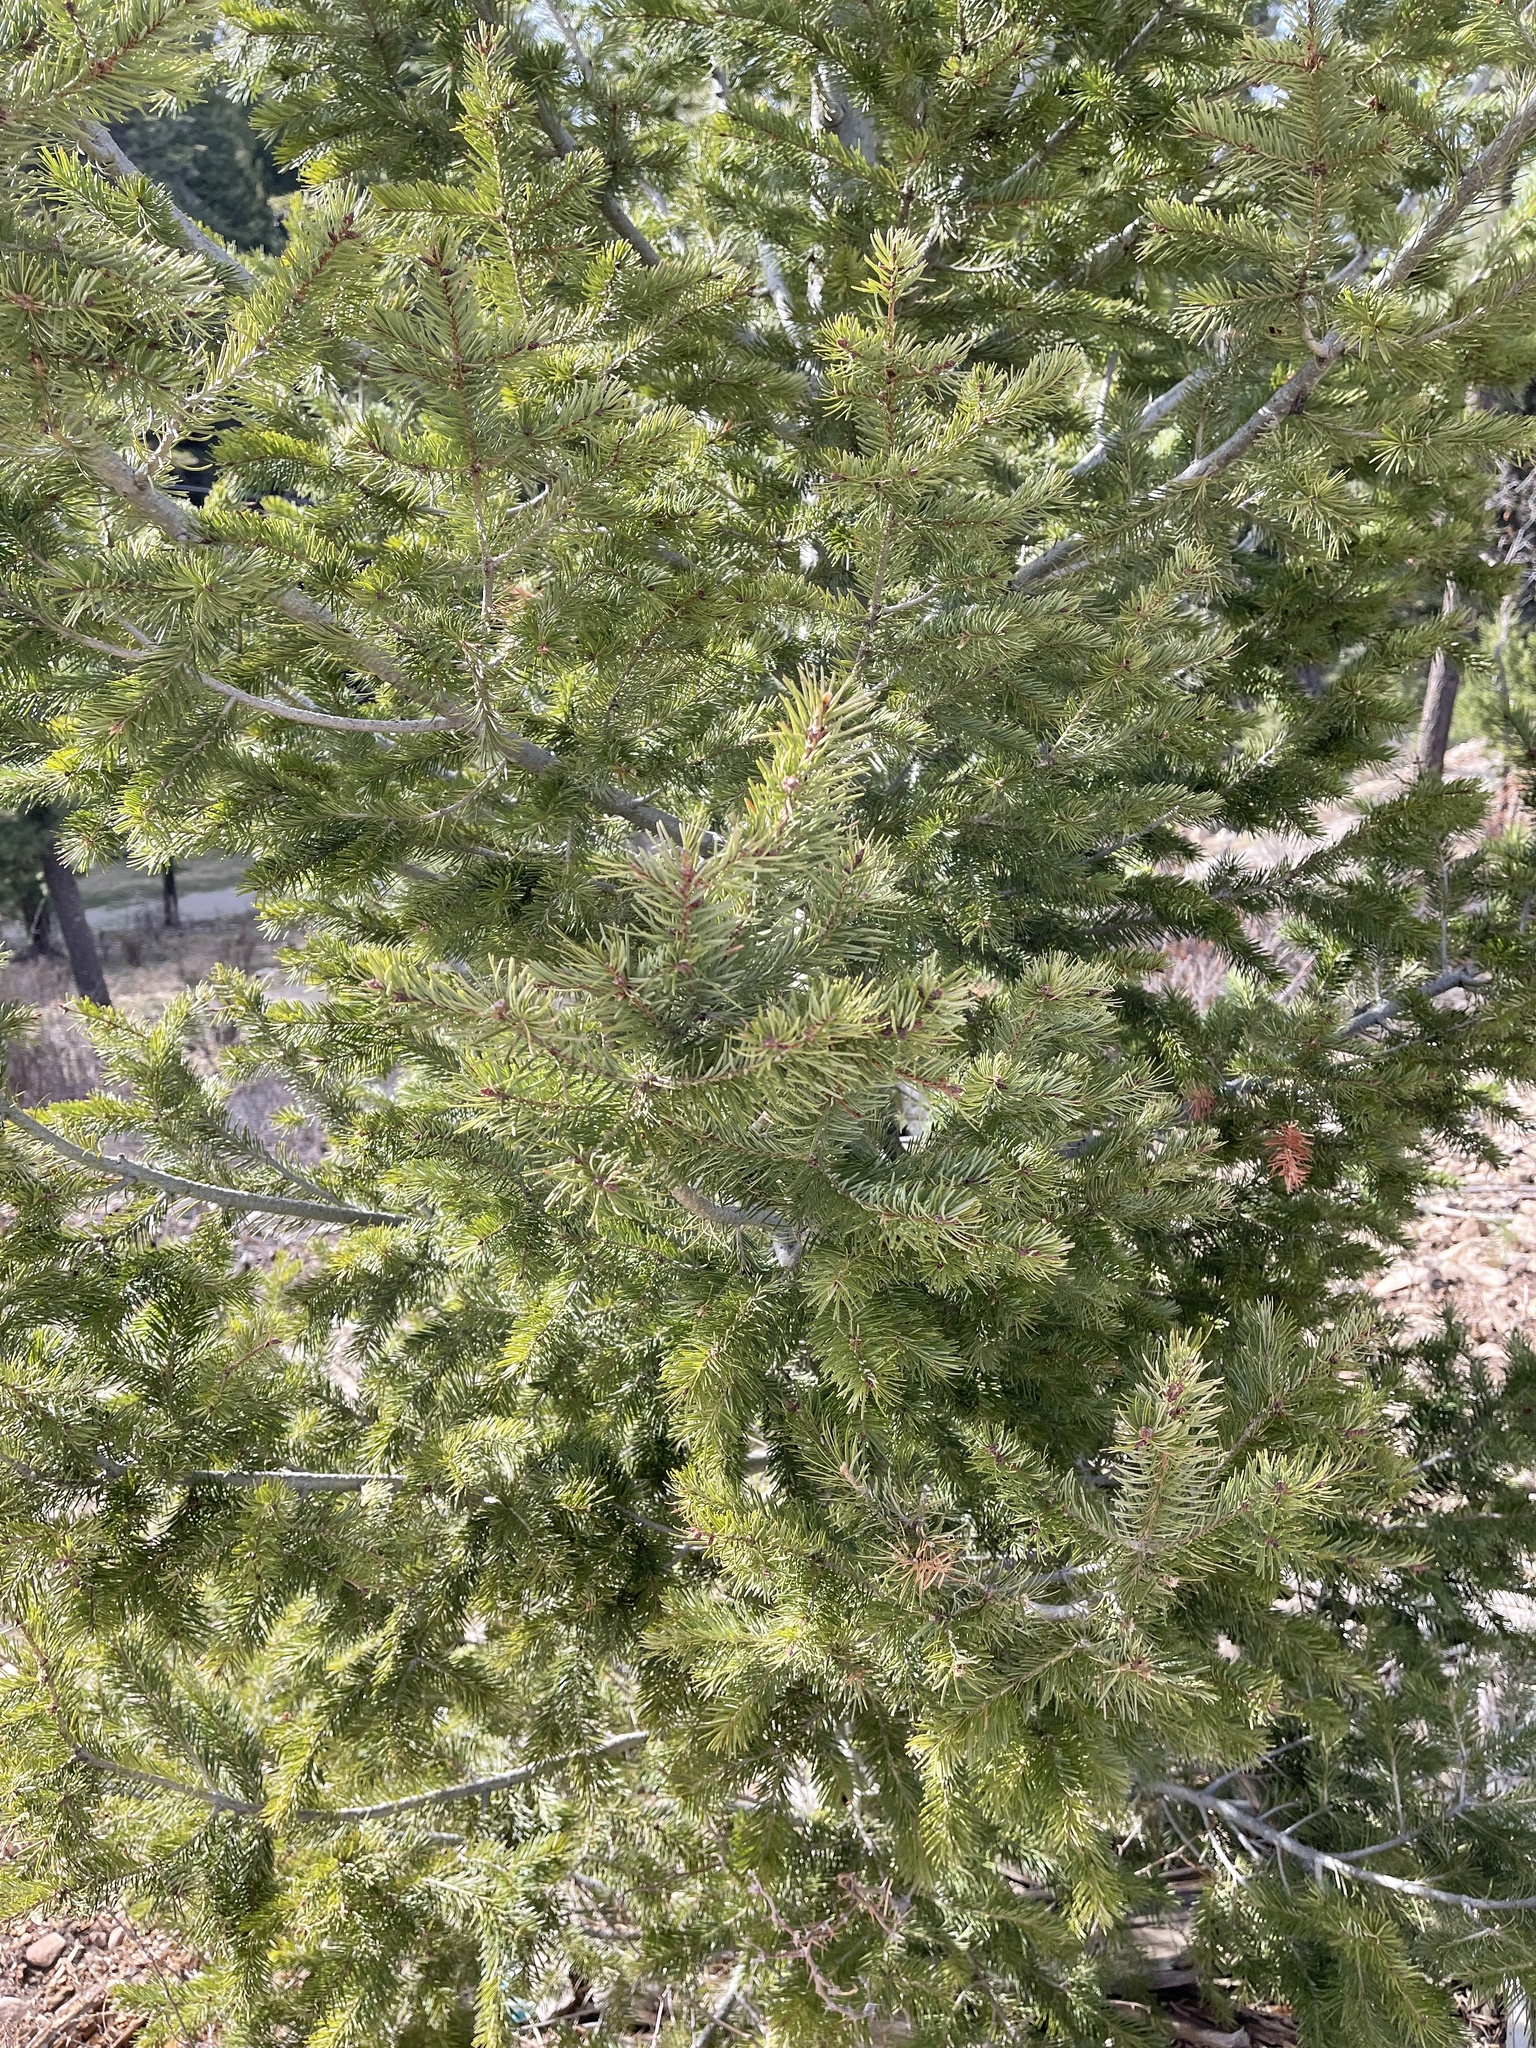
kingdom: Plantae
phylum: Tracheophyta
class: Pinopsida
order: Pinales
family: Pinaceae
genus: Pseudotsuga
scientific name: Pseudotsuga menziesii
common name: Douglas fir
